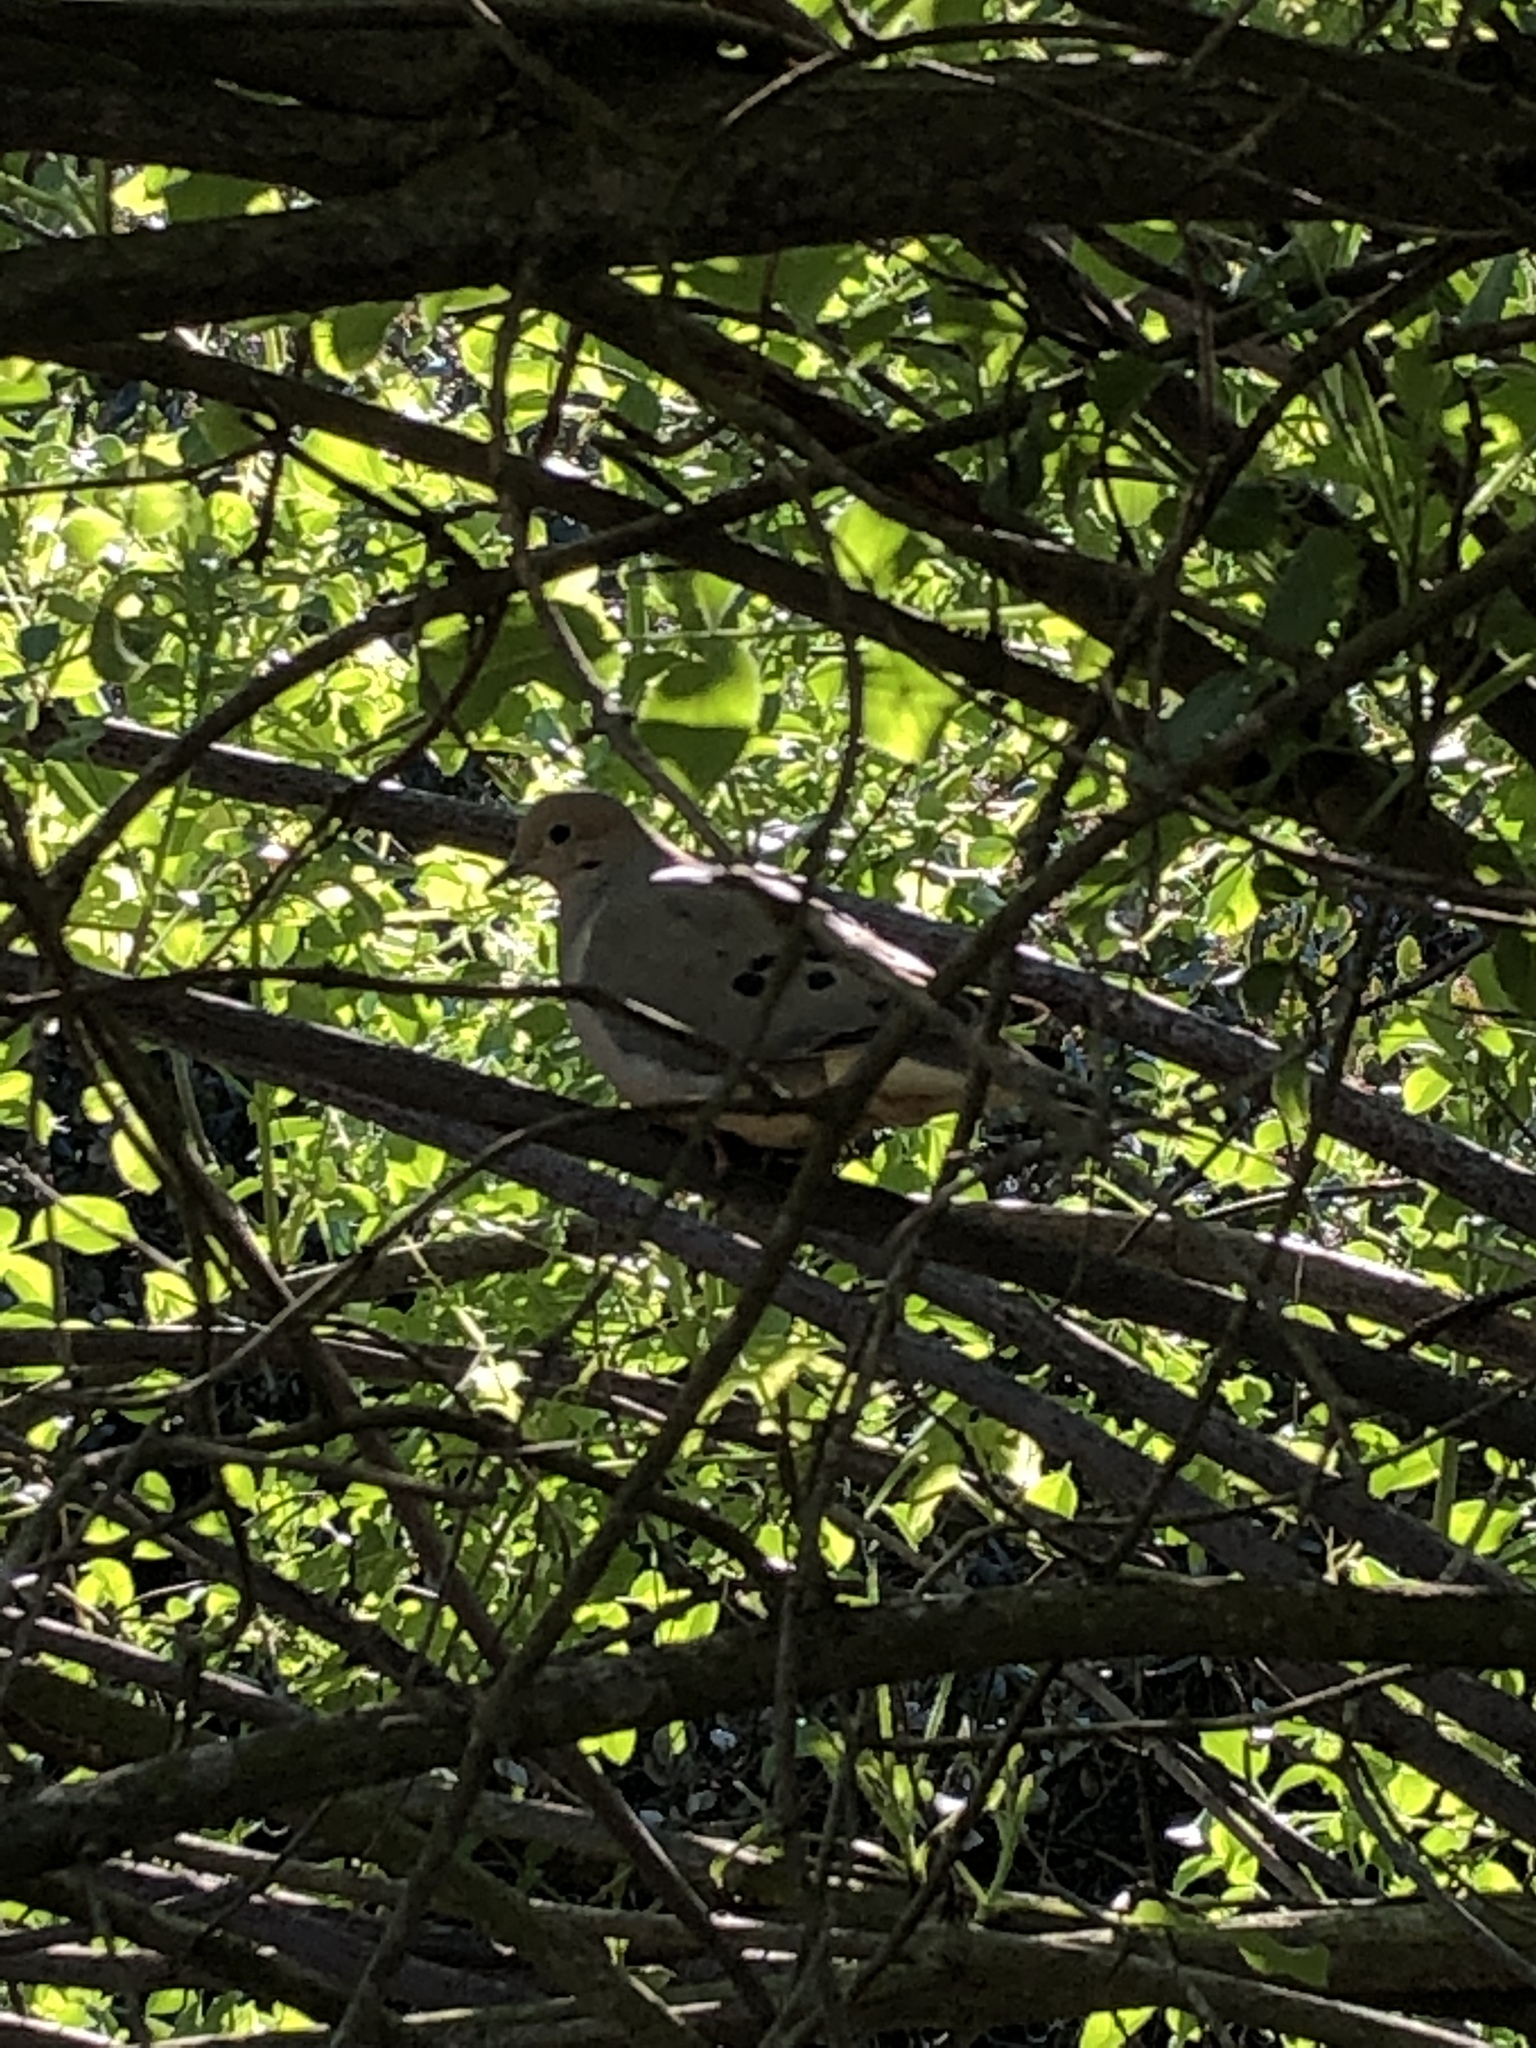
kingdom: Animalia
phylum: Chordata
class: Aves
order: Columbiformes
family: Columbidae
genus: Zenaida
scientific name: Zenaida macroura
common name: Mourning dove
